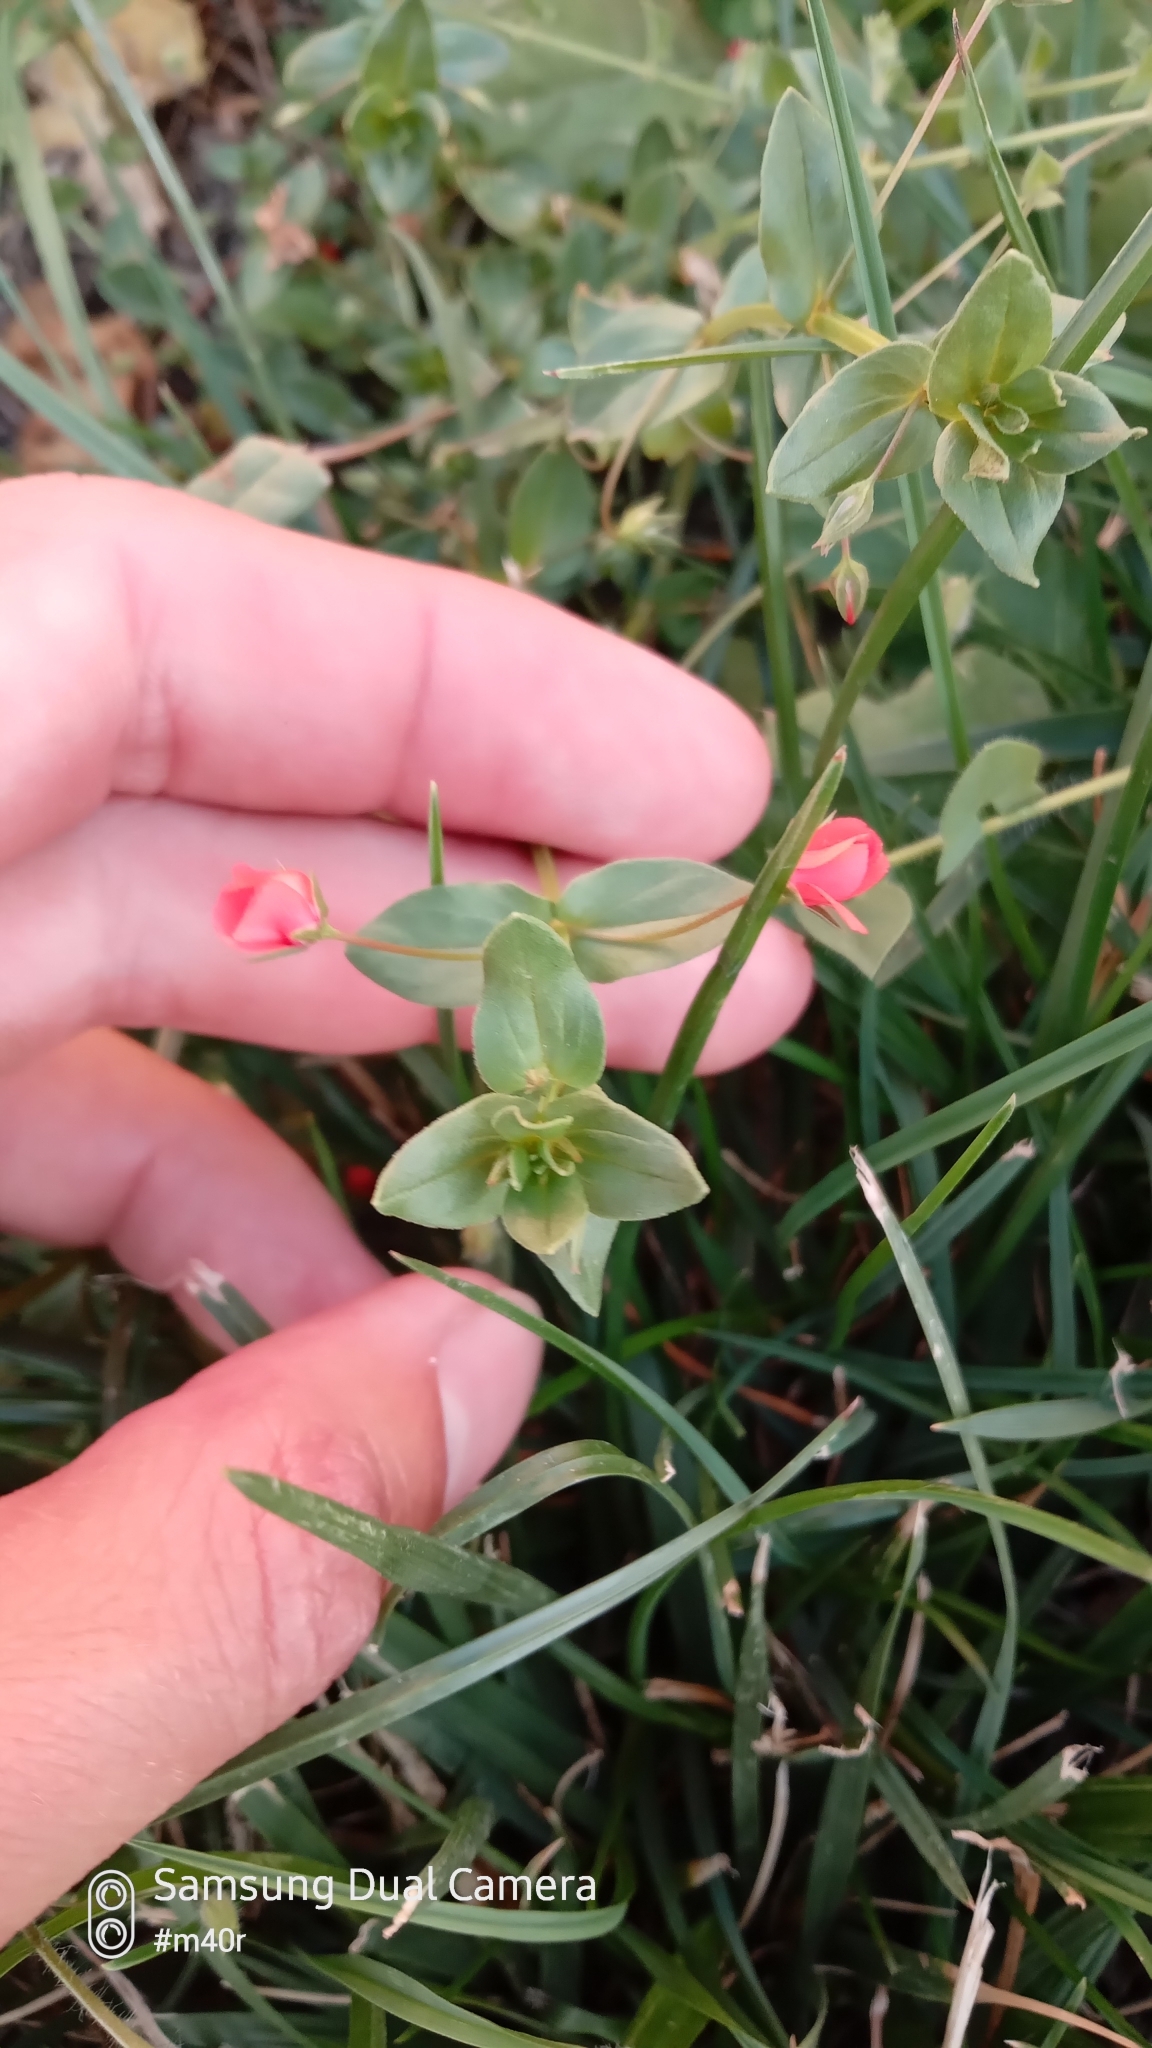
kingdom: Plantae
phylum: Tracheophyta
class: Magnoliopsida
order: Ericales
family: Primulaceae
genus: Lysimachia
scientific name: Lysimachia arvensis
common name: Scarlet pimpernel
